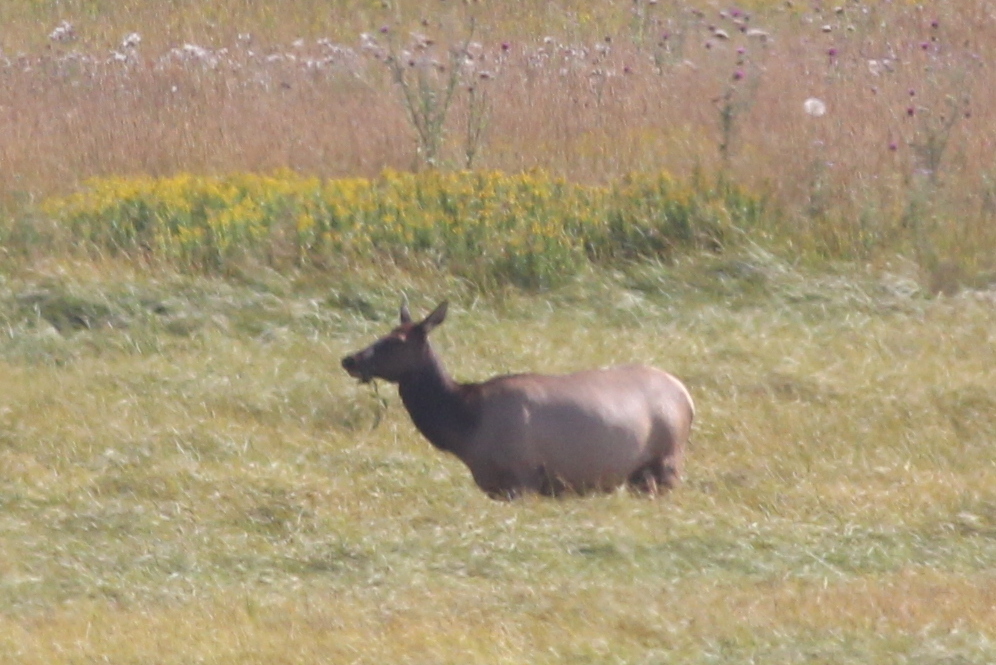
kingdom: Animalia
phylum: Chordata
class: Mammalia
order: Artiodactyla
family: Cervidae
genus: Cervus
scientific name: Cervus elaphus
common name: Red deer
